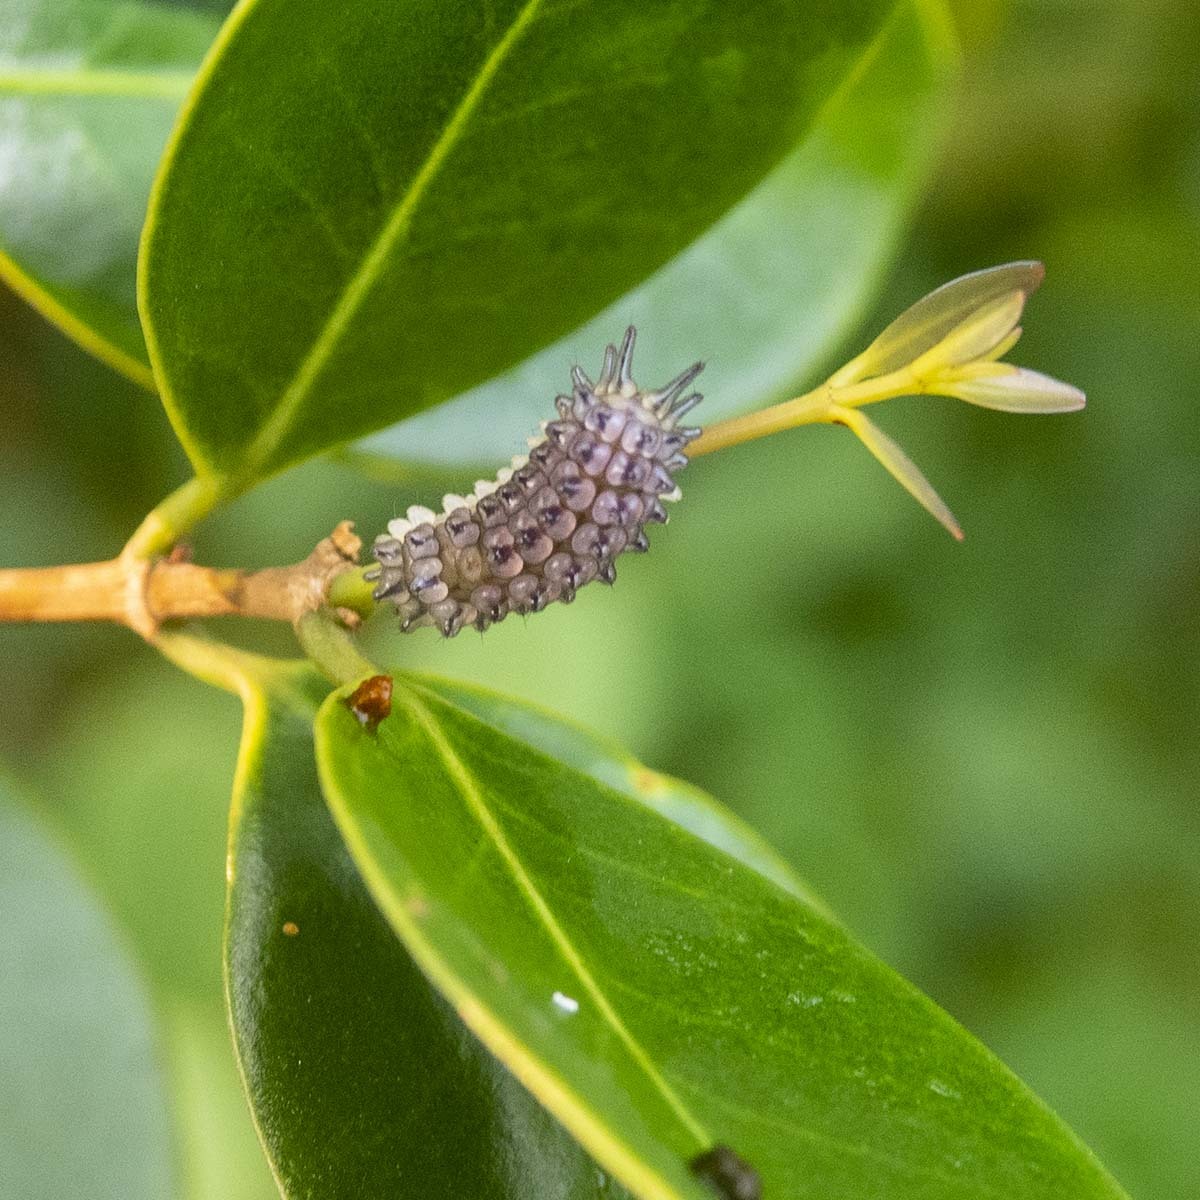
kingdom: Animalia
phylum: Arthropoda
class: Insecta
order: Lepidoptera
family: Zygaenidae
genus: Callizygaena
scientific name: Callizygaena auratus
